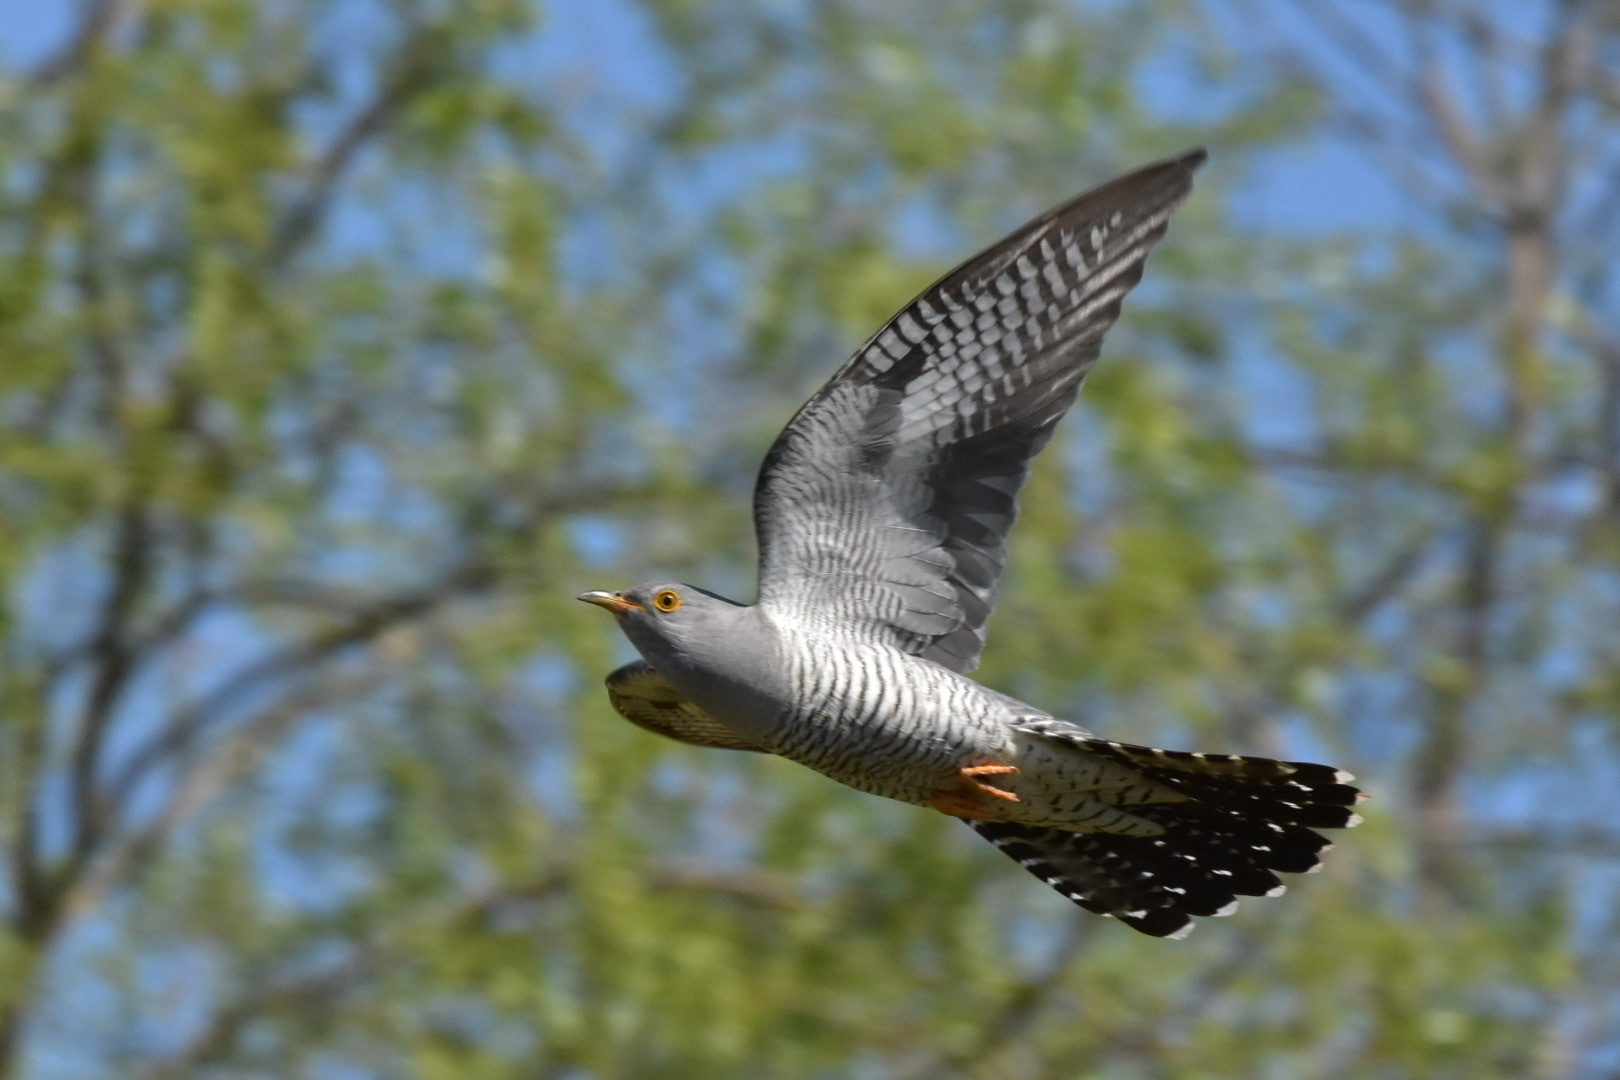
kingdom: Animalia
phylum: Chordata
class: Aves
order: Cuculiformes
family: Cuculidae
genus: Cuculus
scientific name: Cuculus canorus
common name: Common cuckoo
